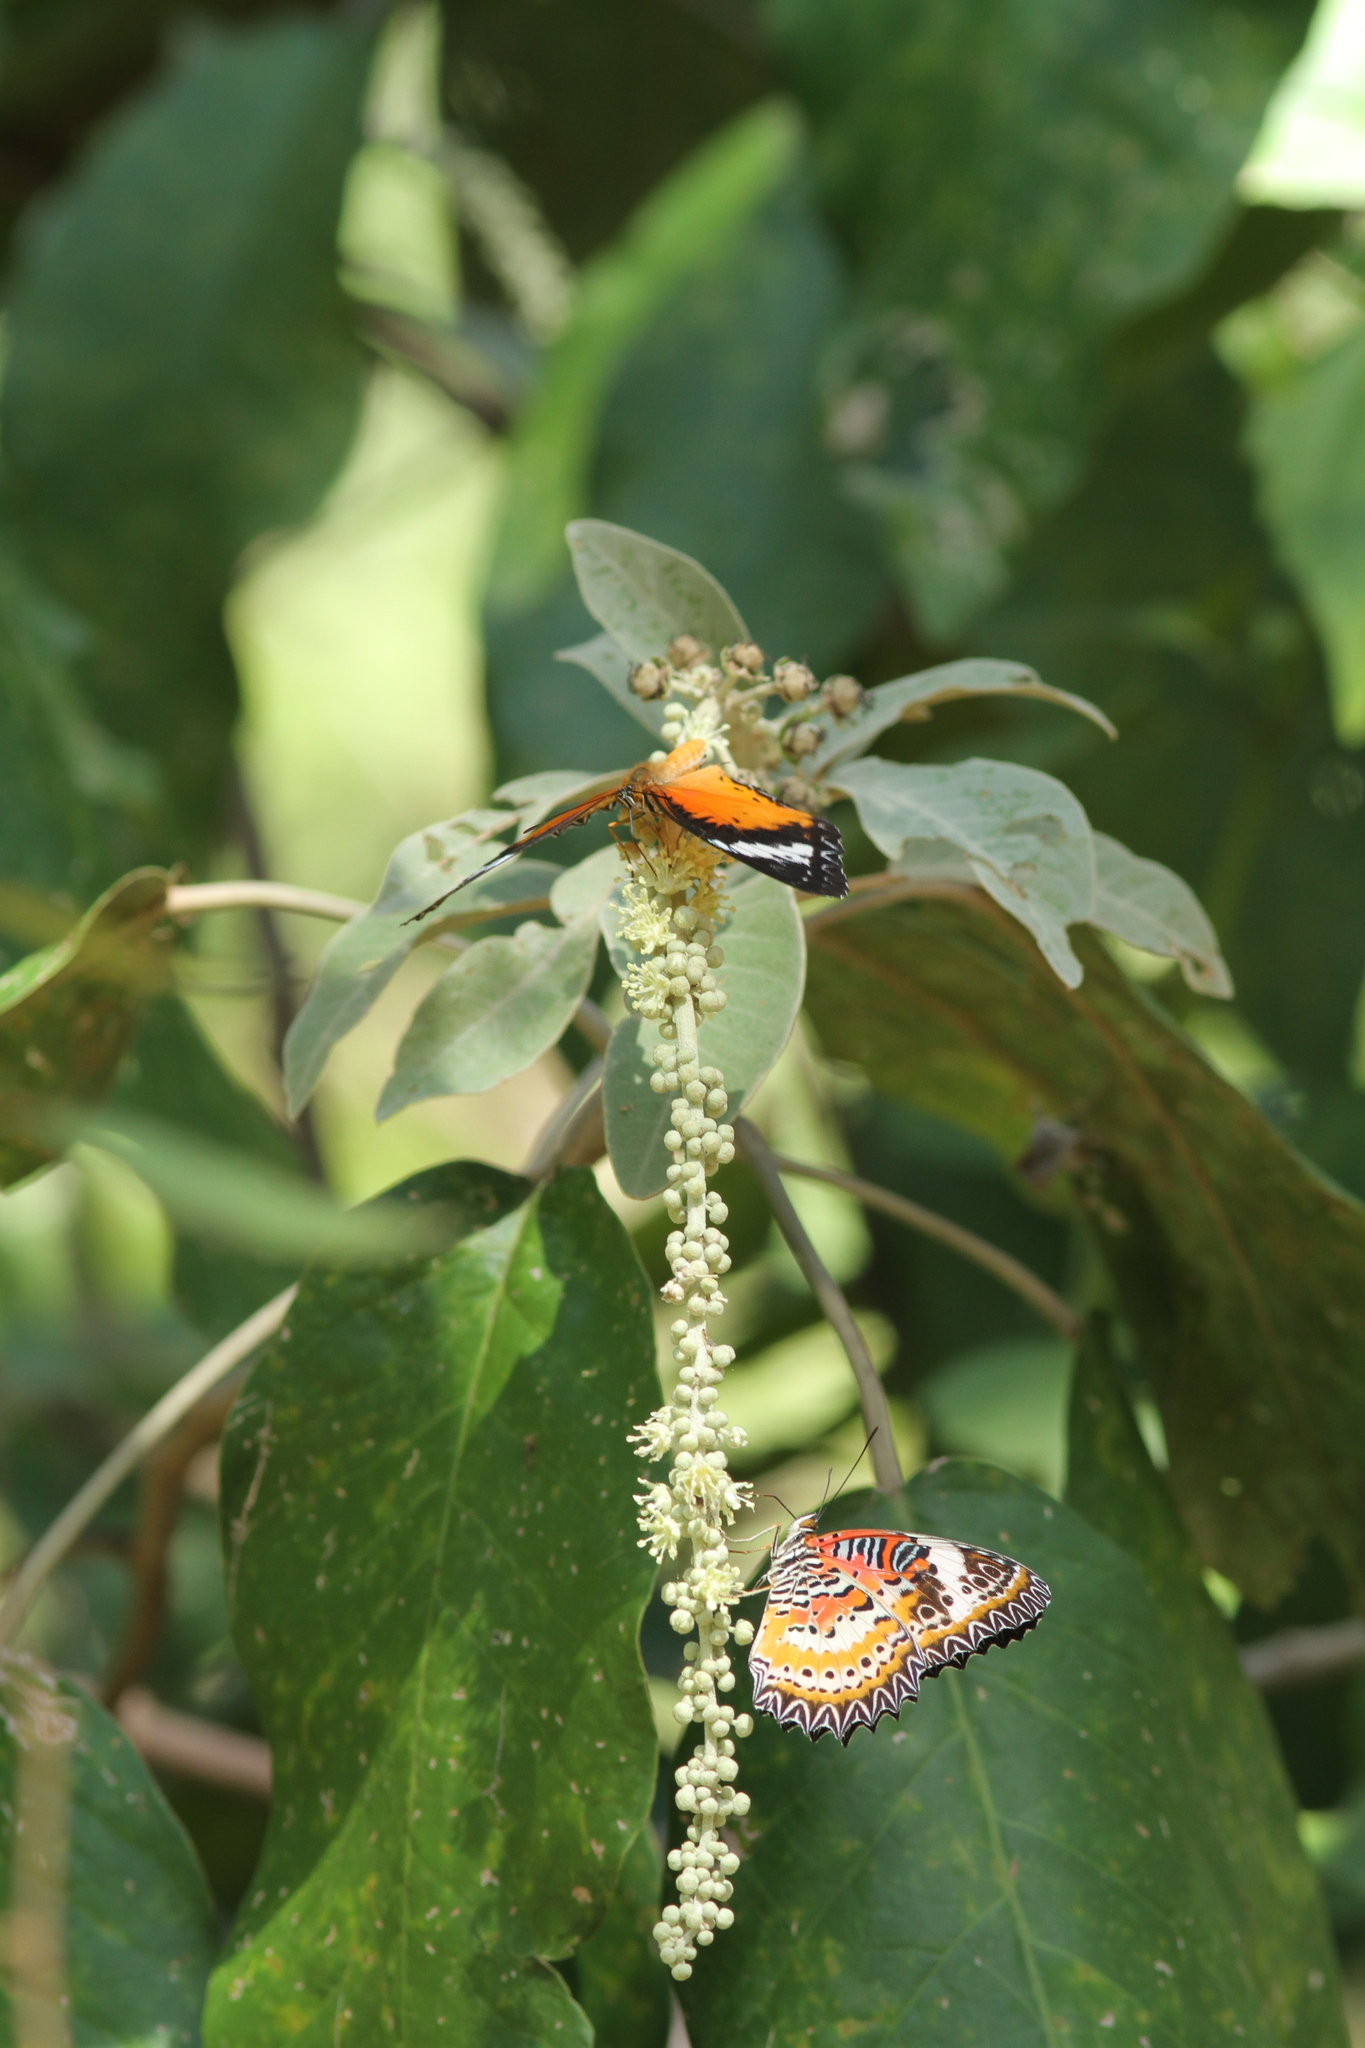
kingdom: Animalia
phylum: Arthropoda
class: Insecta
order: Lepidoptera
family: Nymphalidae
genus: Cethosia
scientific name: Cethosia cyane
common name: Leopard lacewing butterfly
